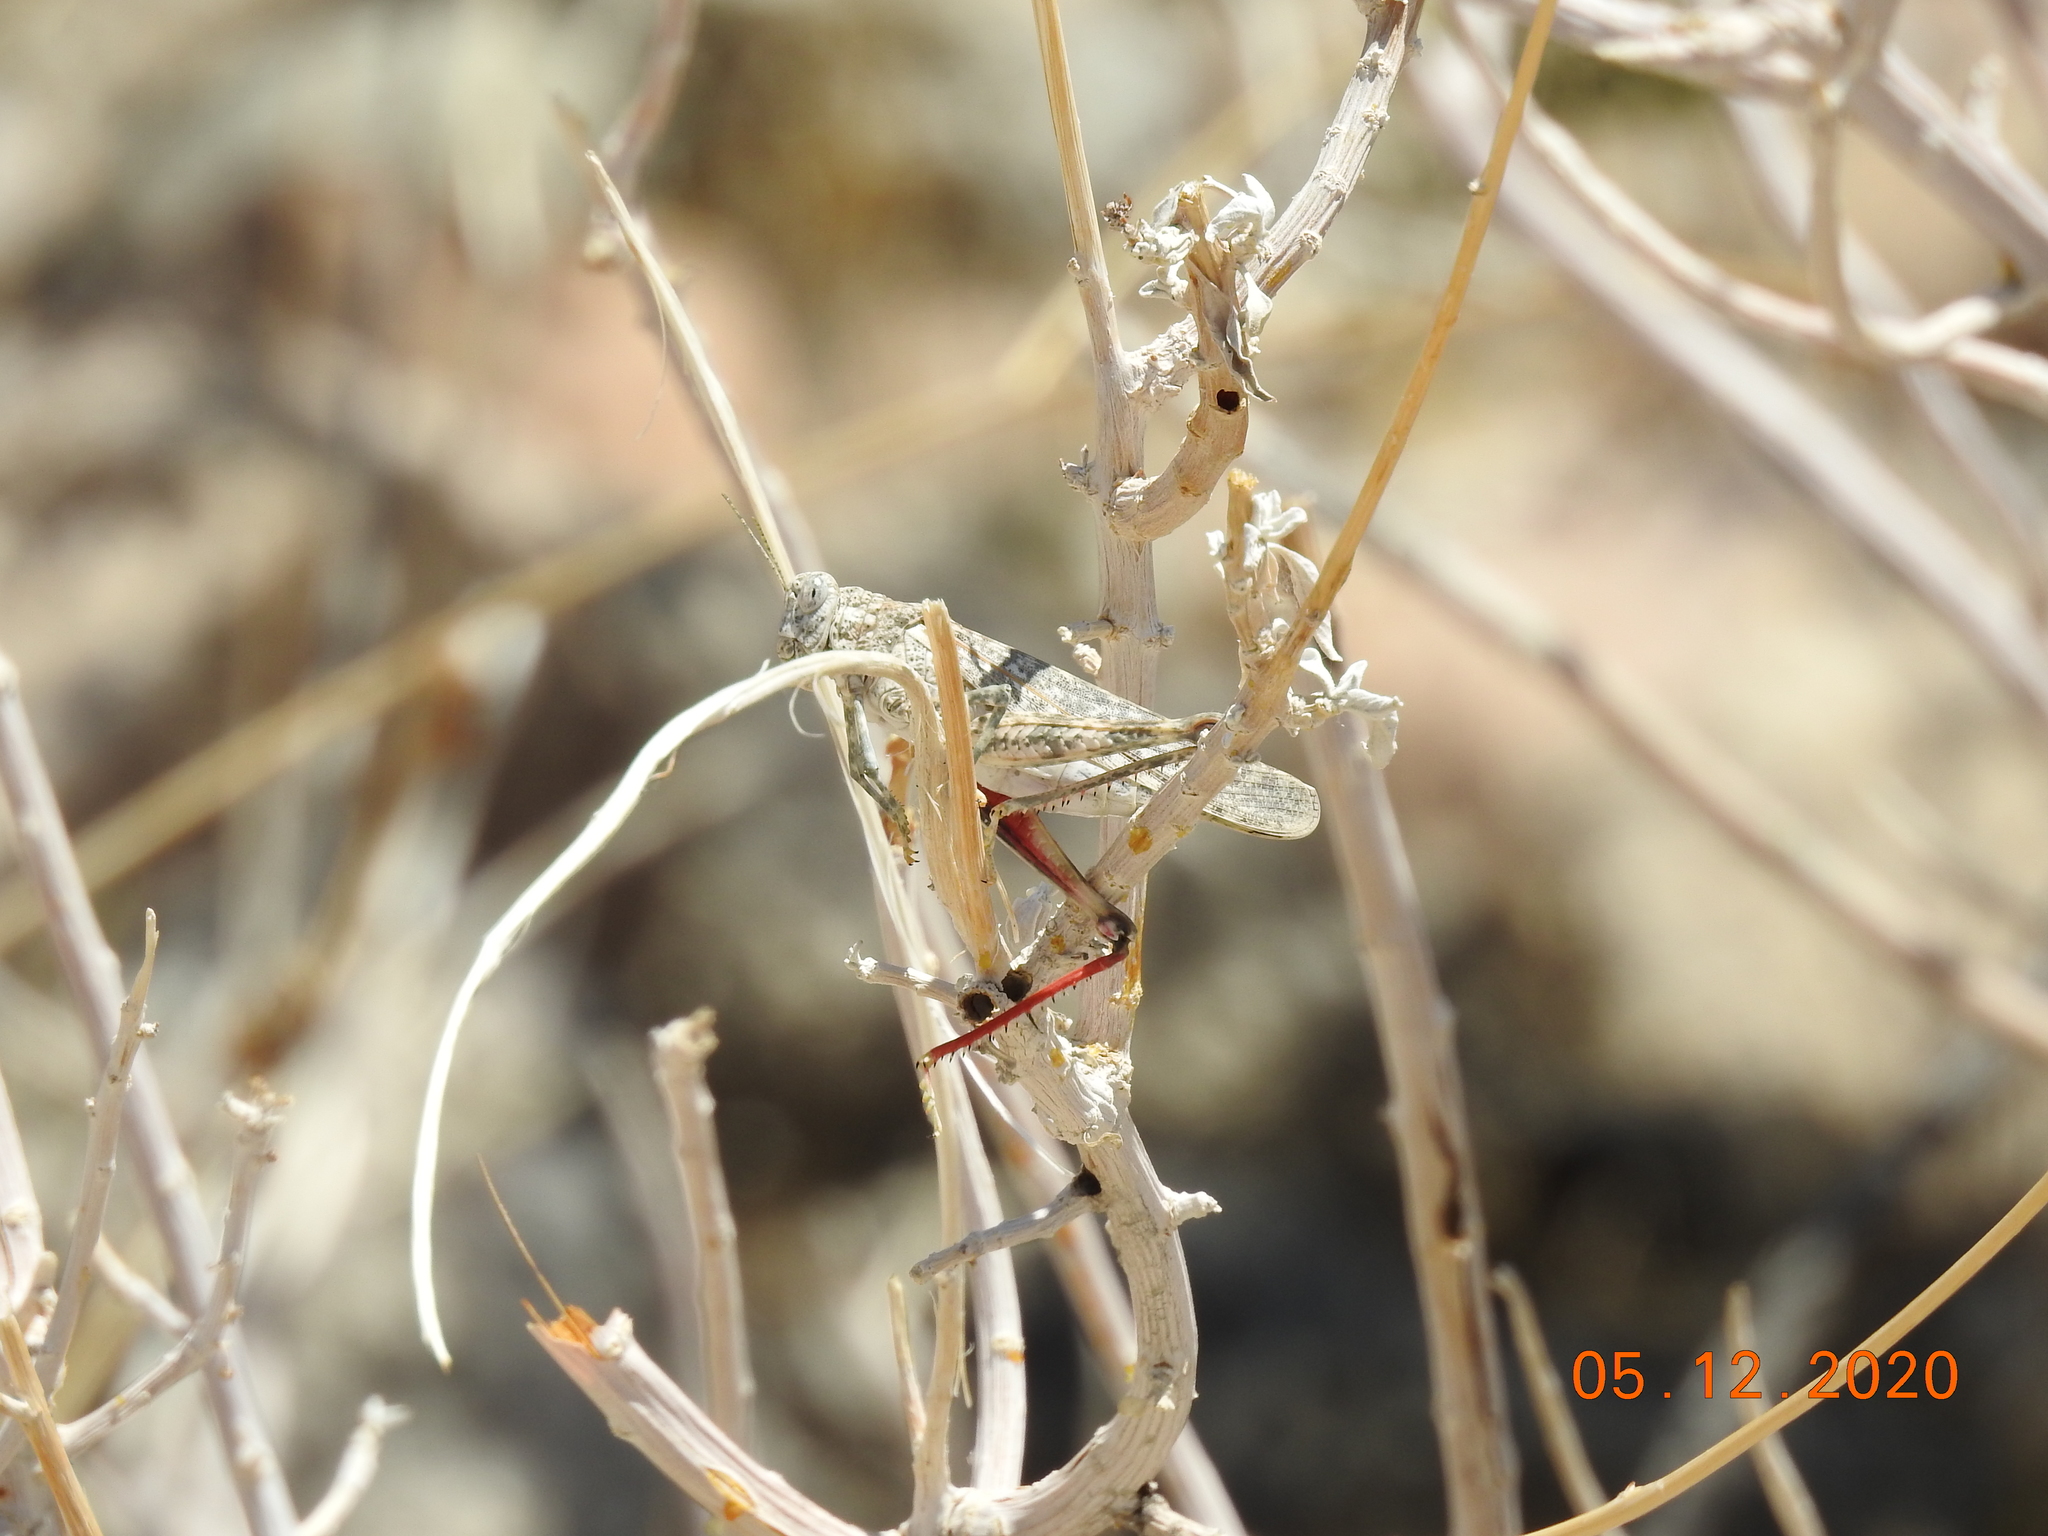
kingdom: Animalia
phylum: Arthropoda
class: Insecta
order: Orthoptera
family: Romaleidae
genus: Tytthotyle
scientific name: Tytthotyle maculata
